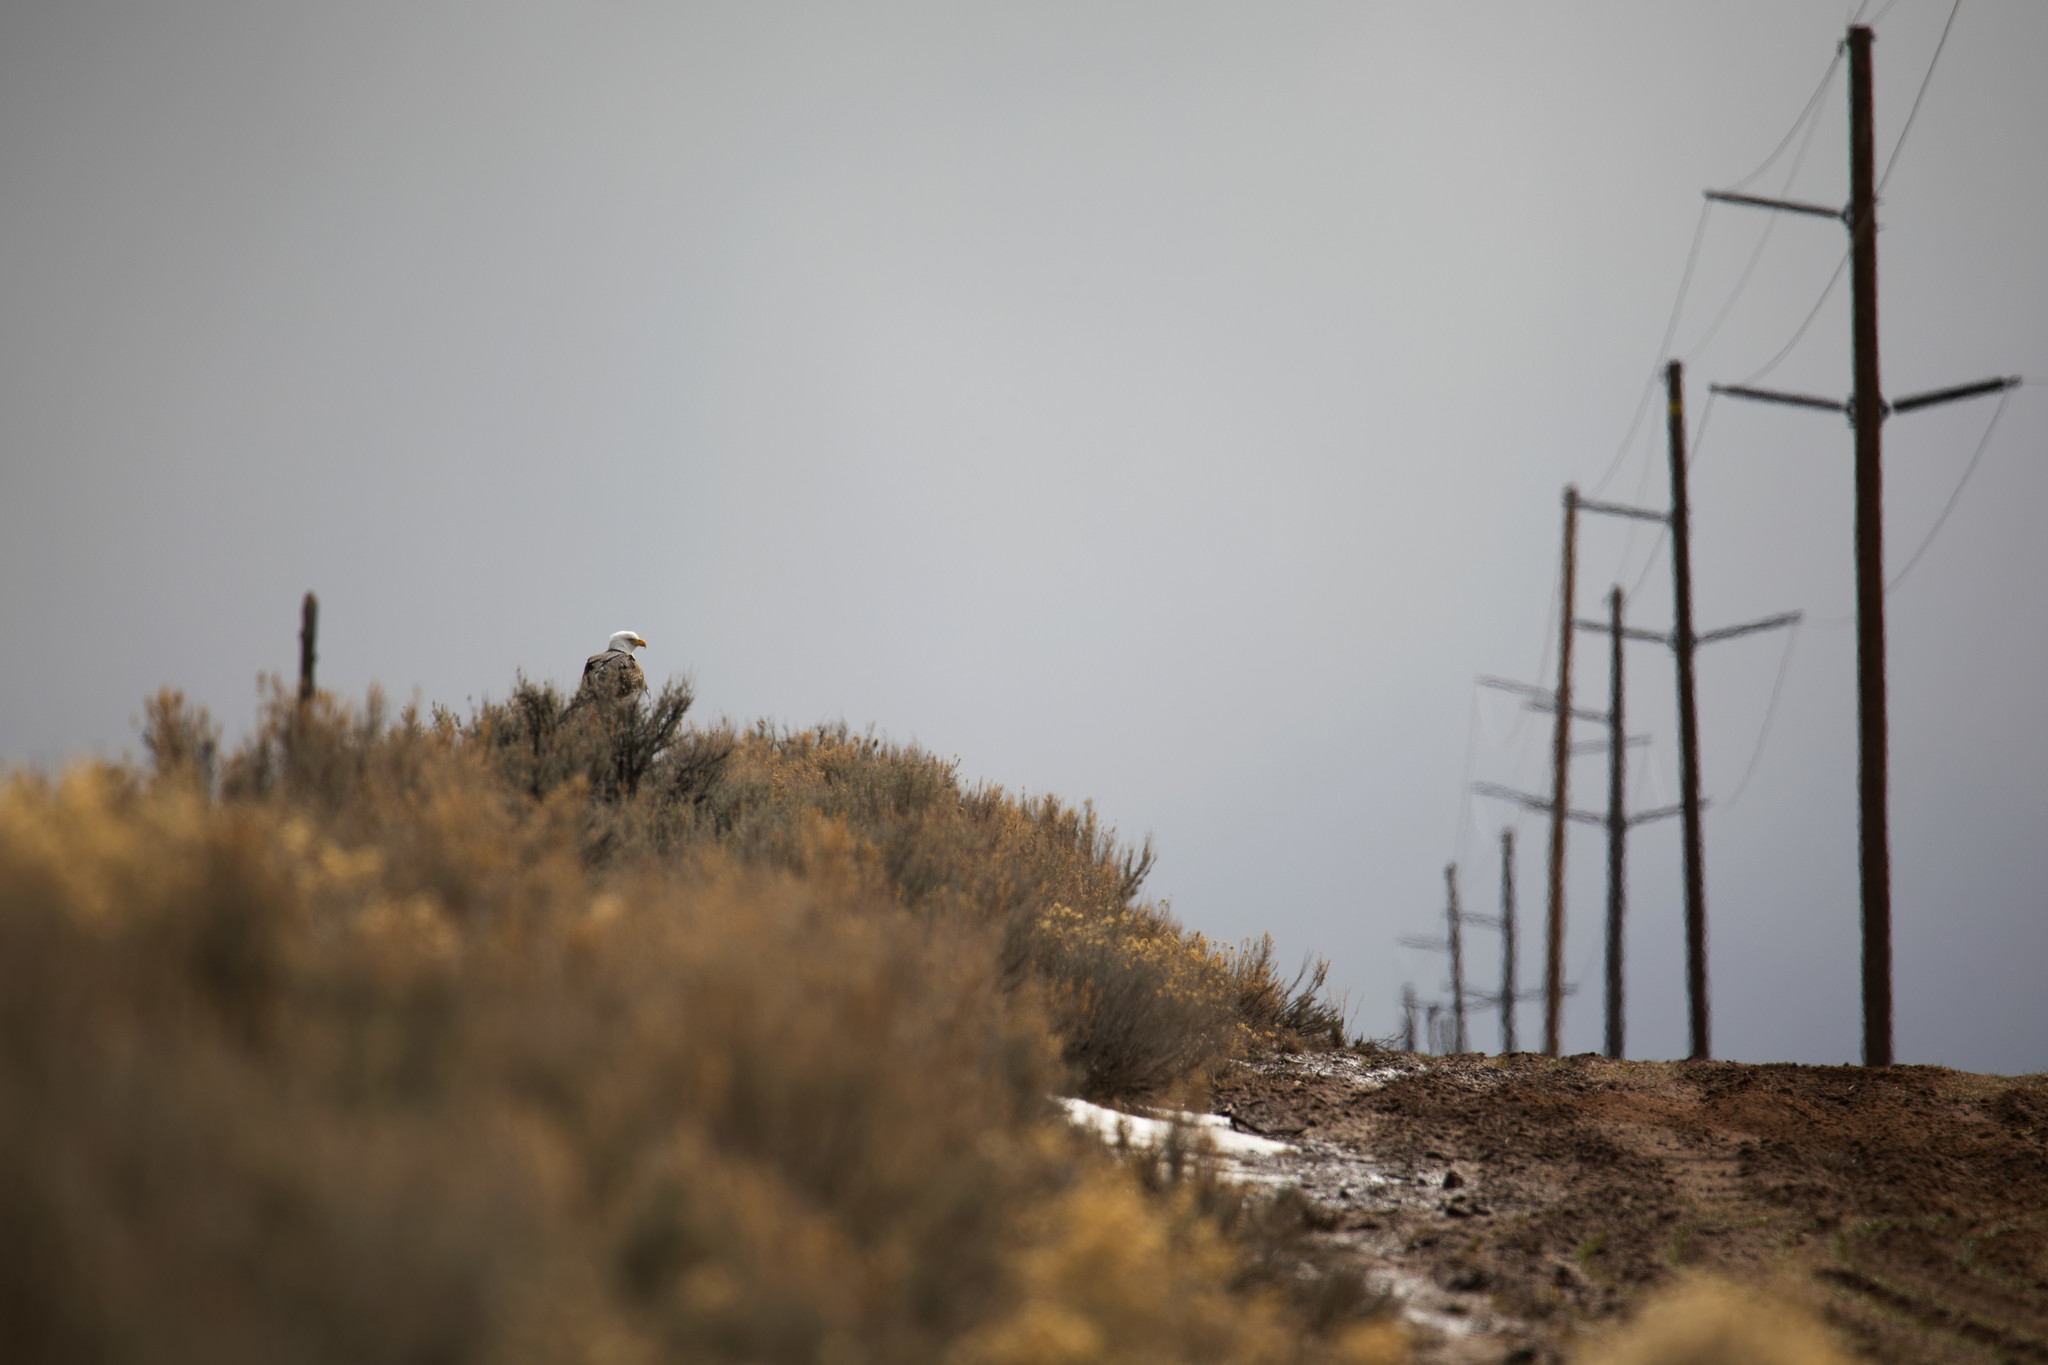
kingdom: Animalia
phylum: Chordata
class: Aves
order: Accipitriformes
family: Accipitridae
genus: Haliaeetus
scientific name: Haliaeetus leucocephalus
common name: Bald eagle
